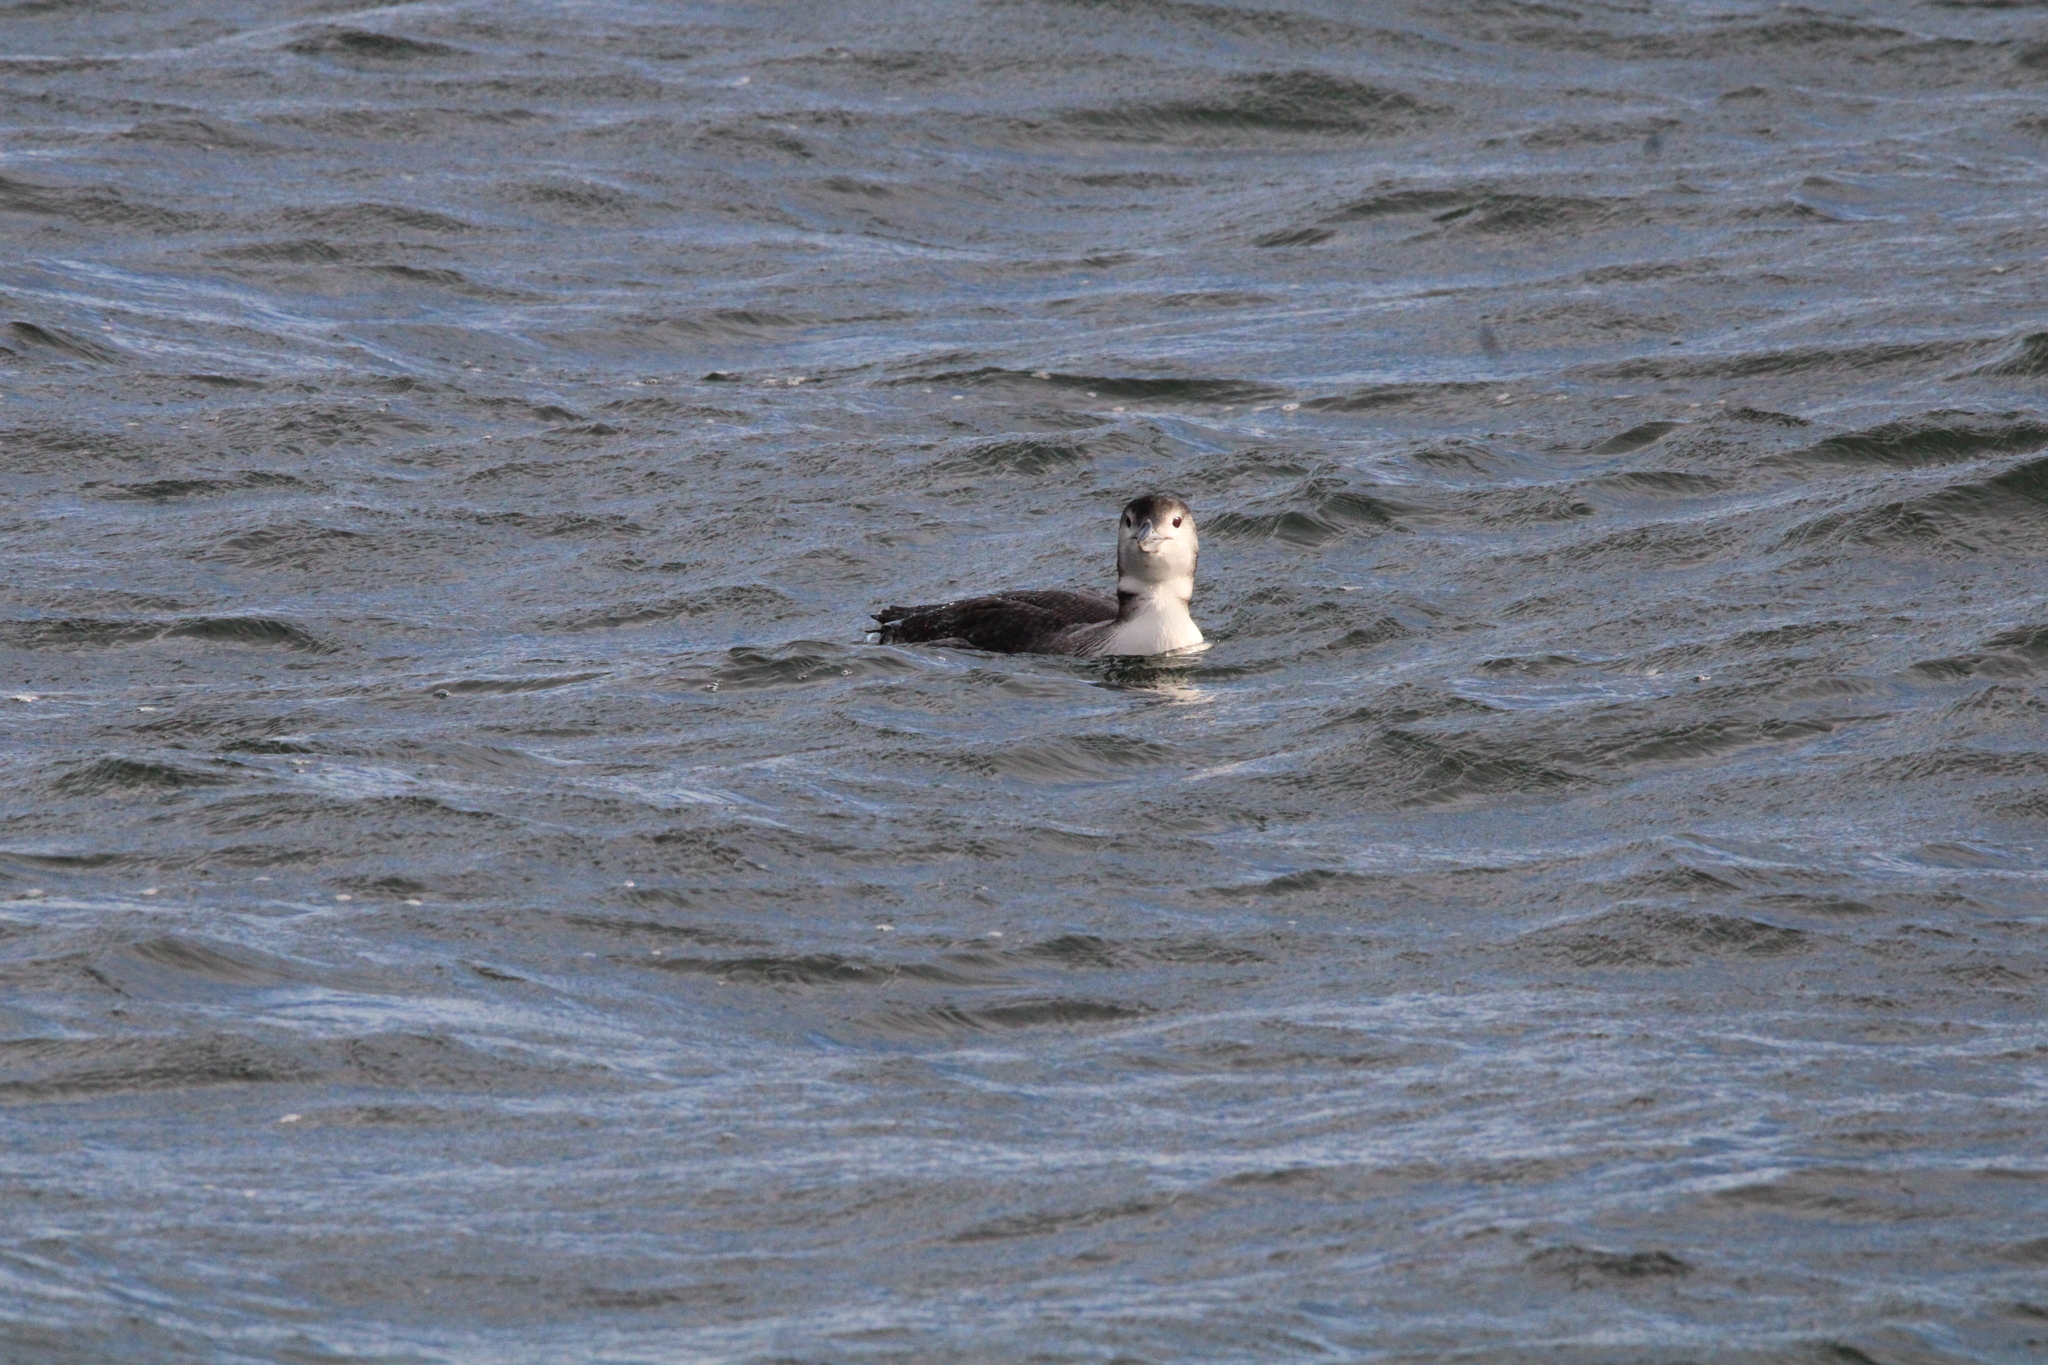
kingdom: Animalia
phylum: Chordata
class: Aves
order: Gaviiformes
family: Gaviidae
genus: Gavia
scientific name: Gavia immer
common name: Common loon
